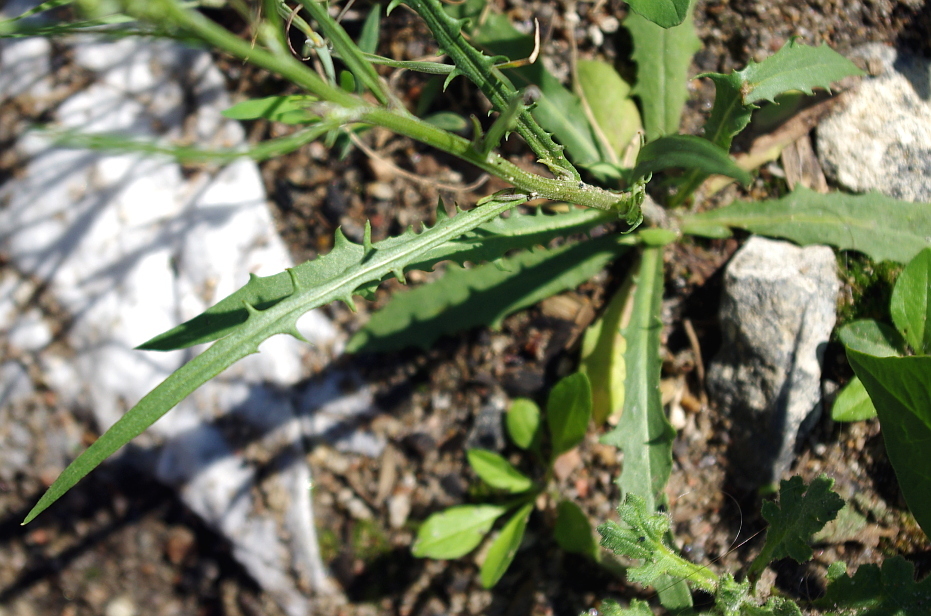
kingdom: Plantae
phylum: Tracheophyta
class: Magnoliopsida
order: Asterales
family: Asteraceae
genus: Crepis
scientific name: Crepis tectorum
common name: Narrow-leaved hawk's-beard
